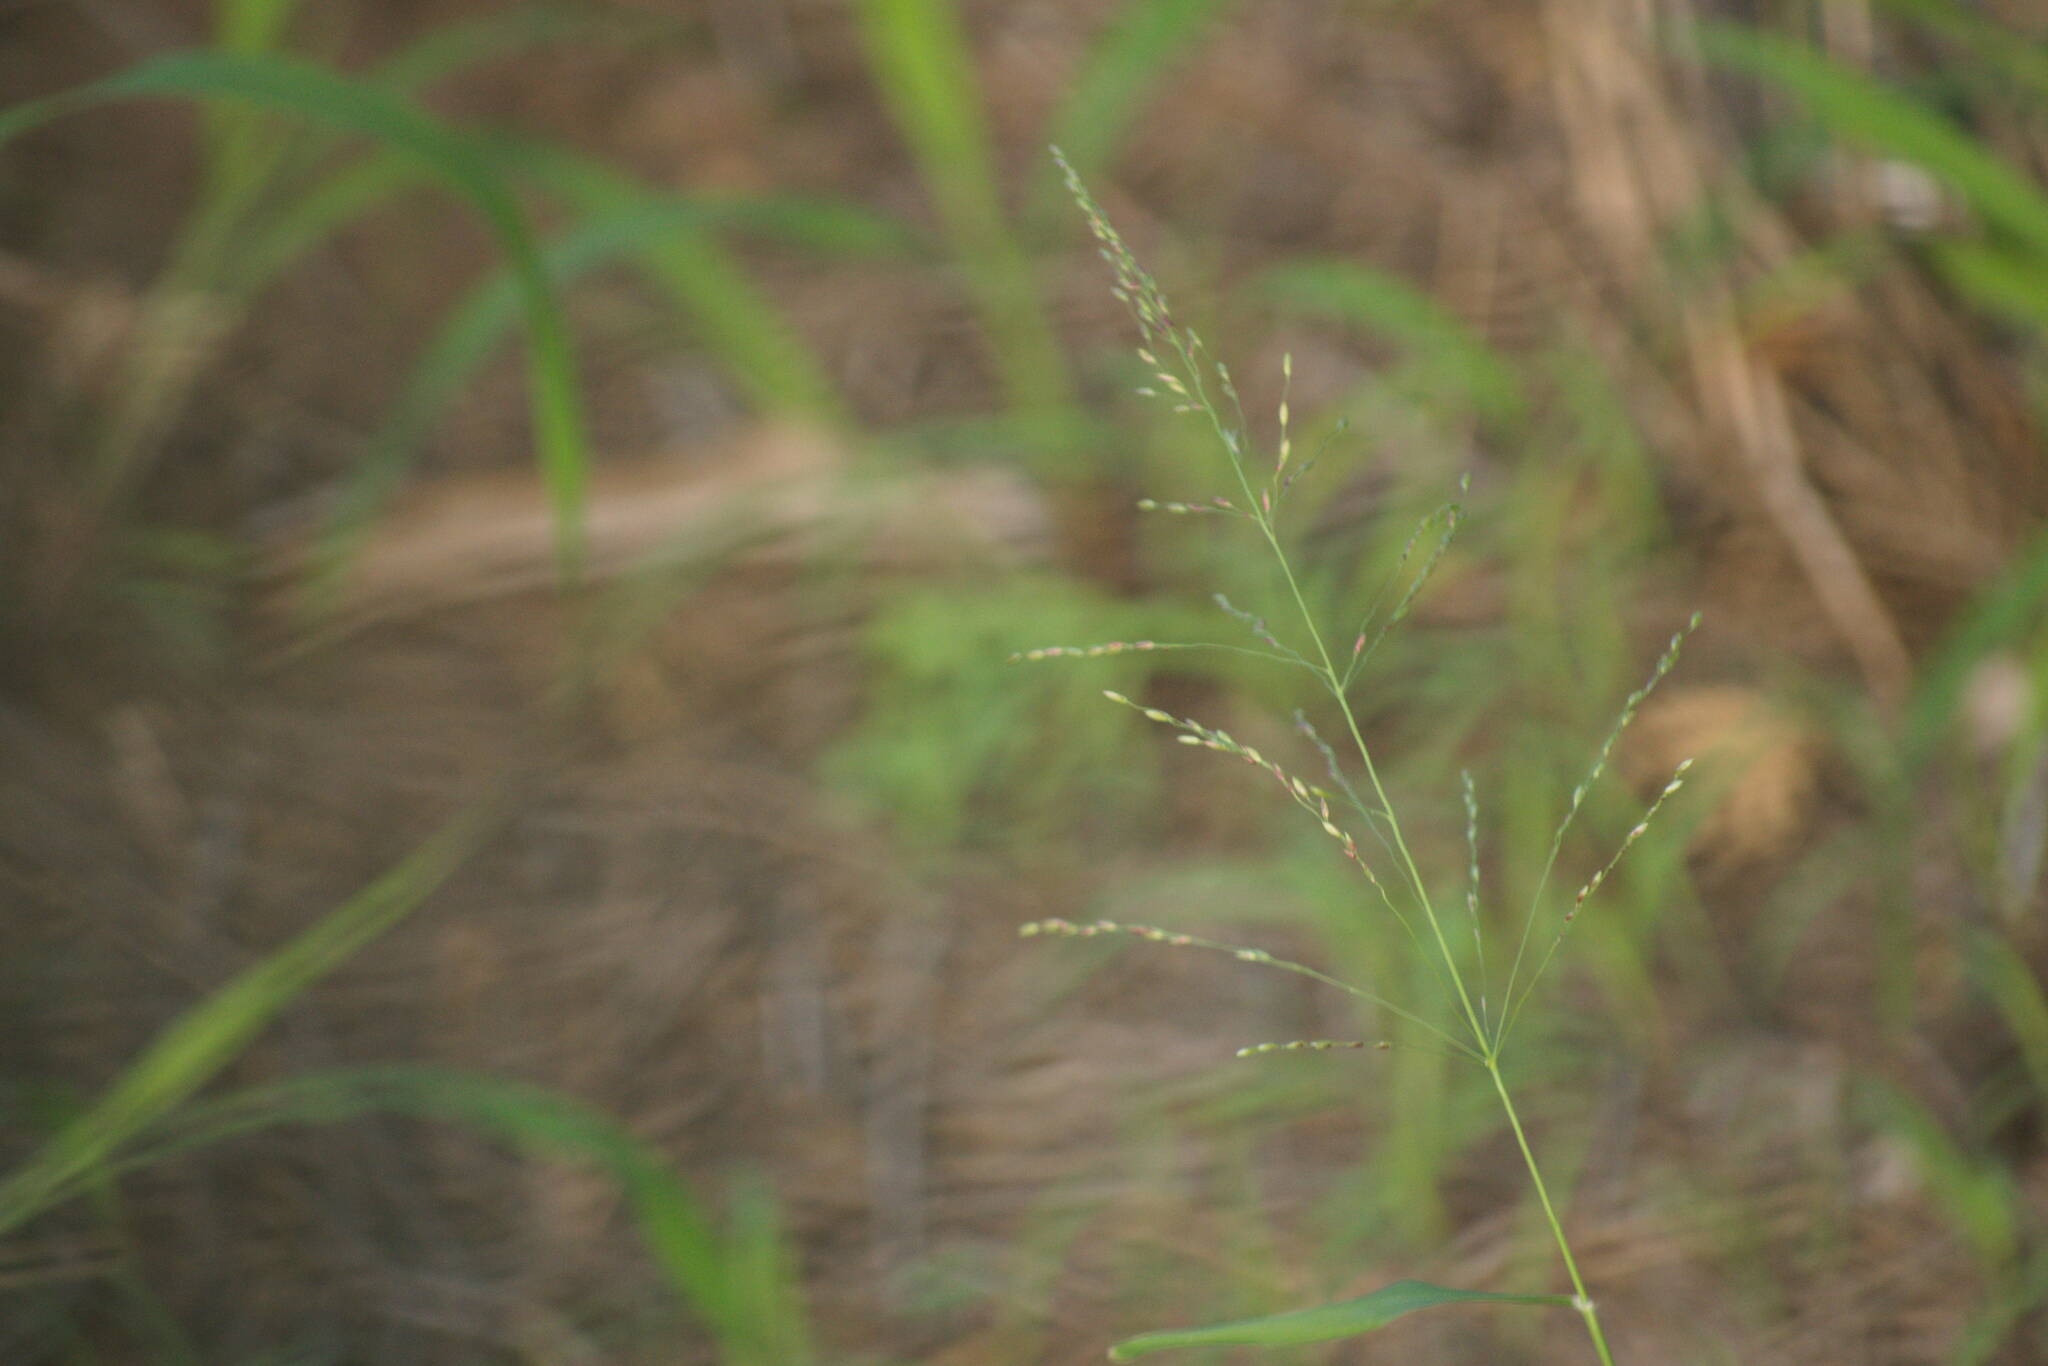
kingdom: Plantae
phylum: Tracheophyta
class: Liliopsida
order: Poales
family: Poaceae
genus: Megathyrsus
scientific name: Megathyrsus maximus
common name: Guineagrass
